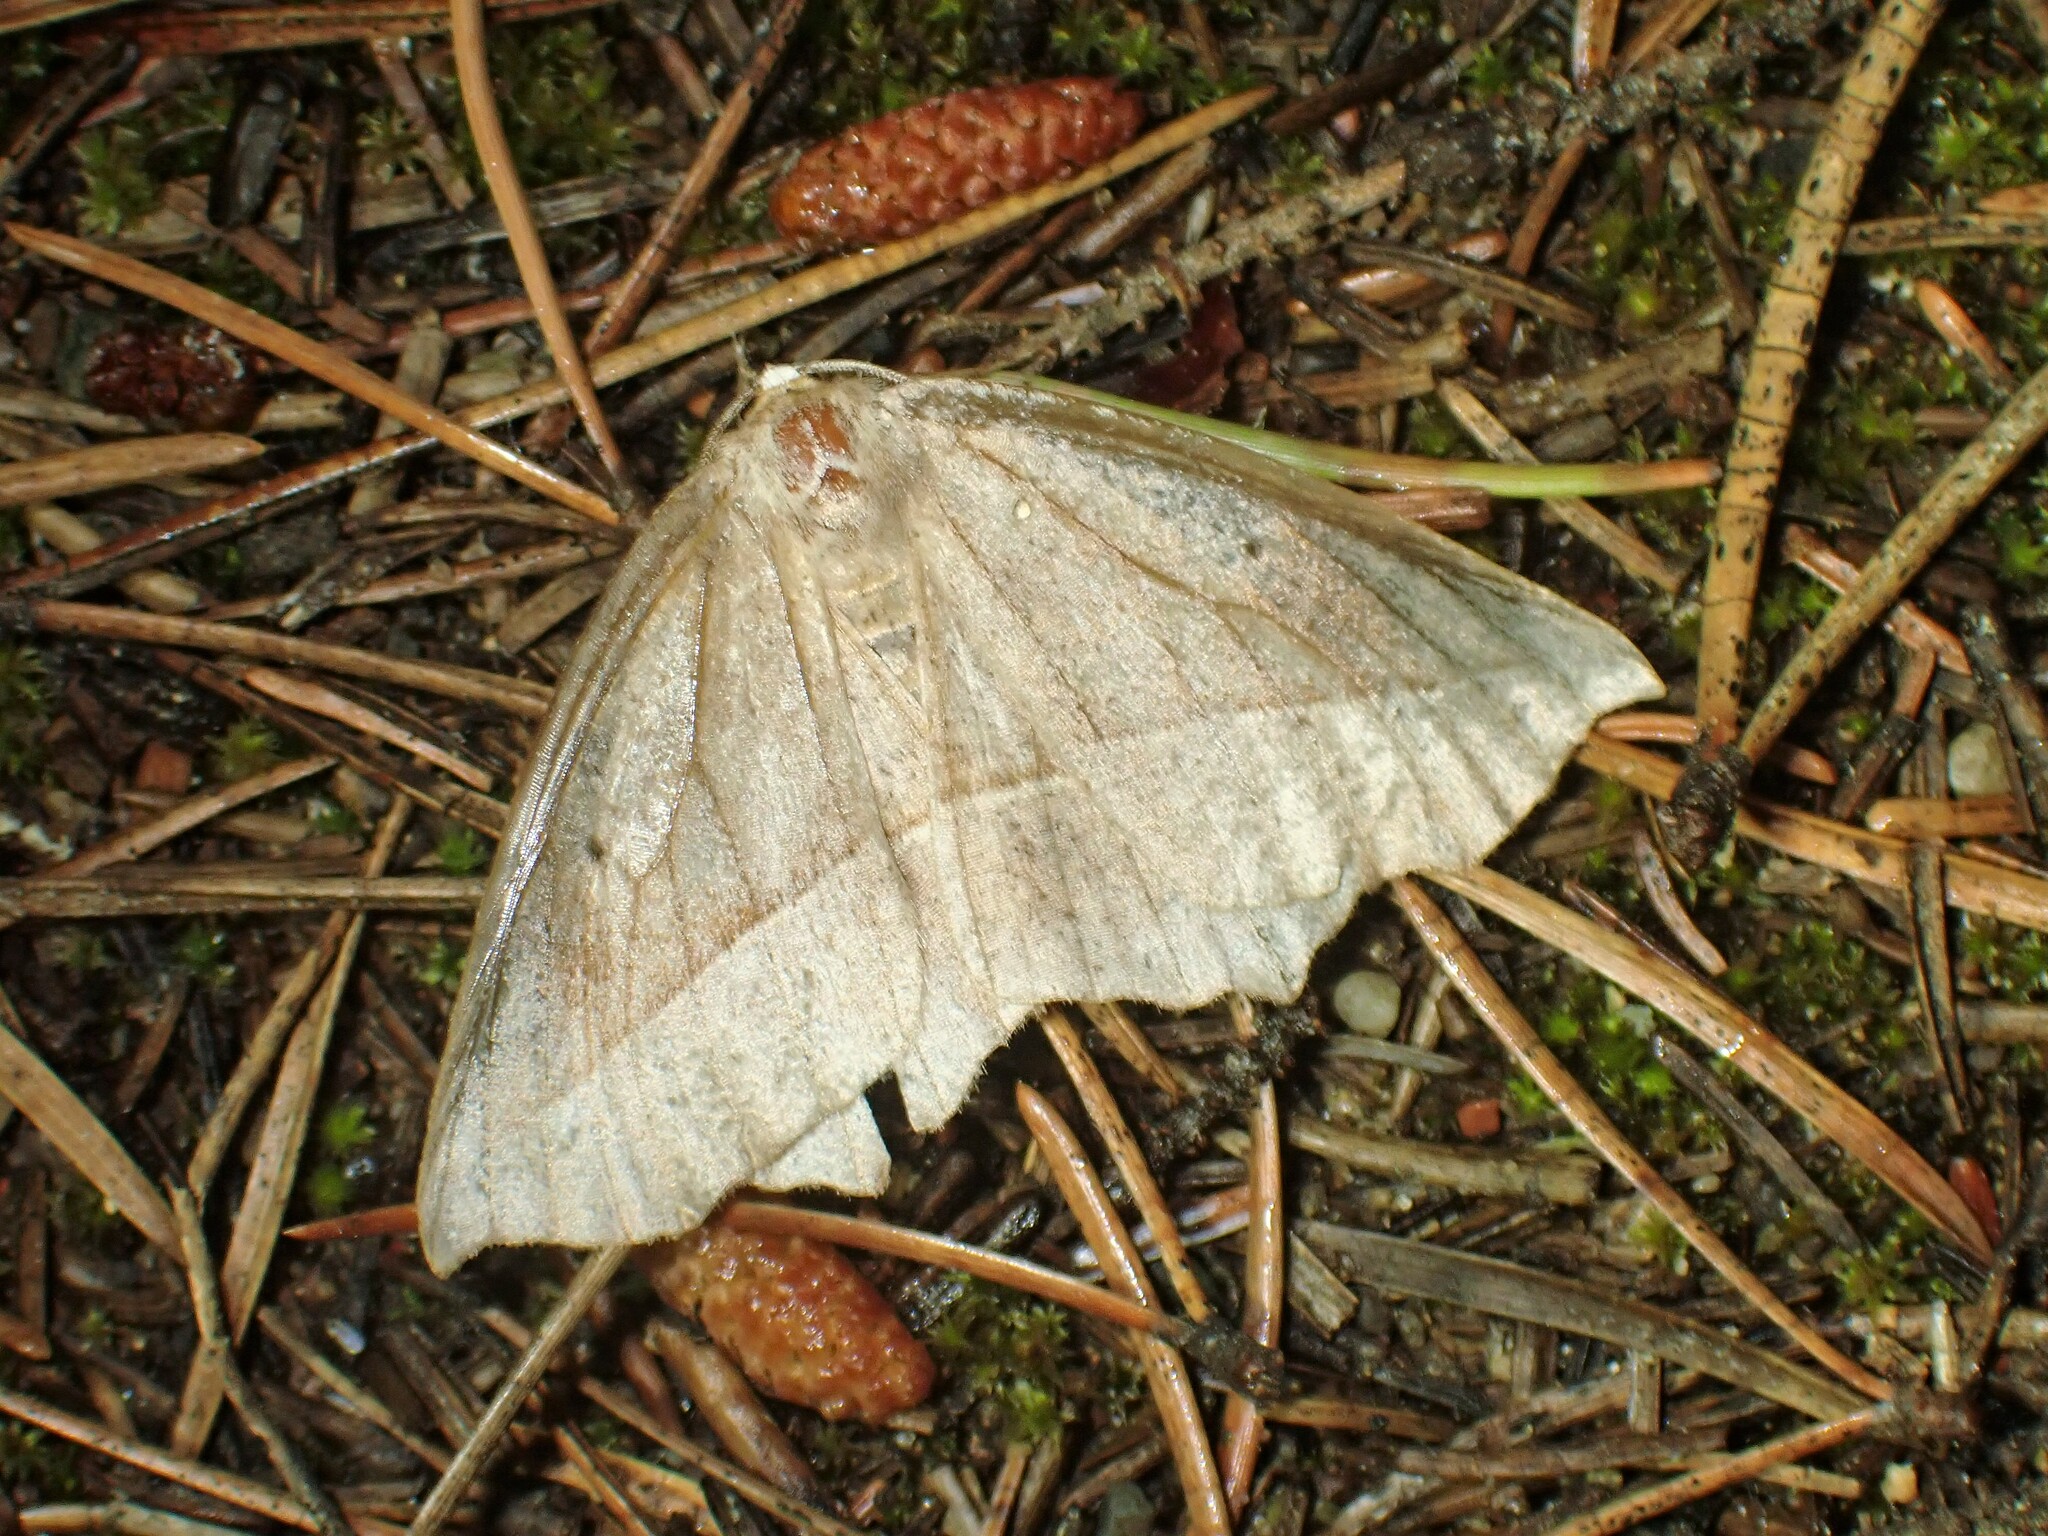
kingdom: Animalia
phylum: Arthropoda
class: Insecta
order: Lepidoptera
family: Geometridae
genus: Eutrapela
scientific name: Eutrapela clemataria
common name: Curved-toothed geometer
